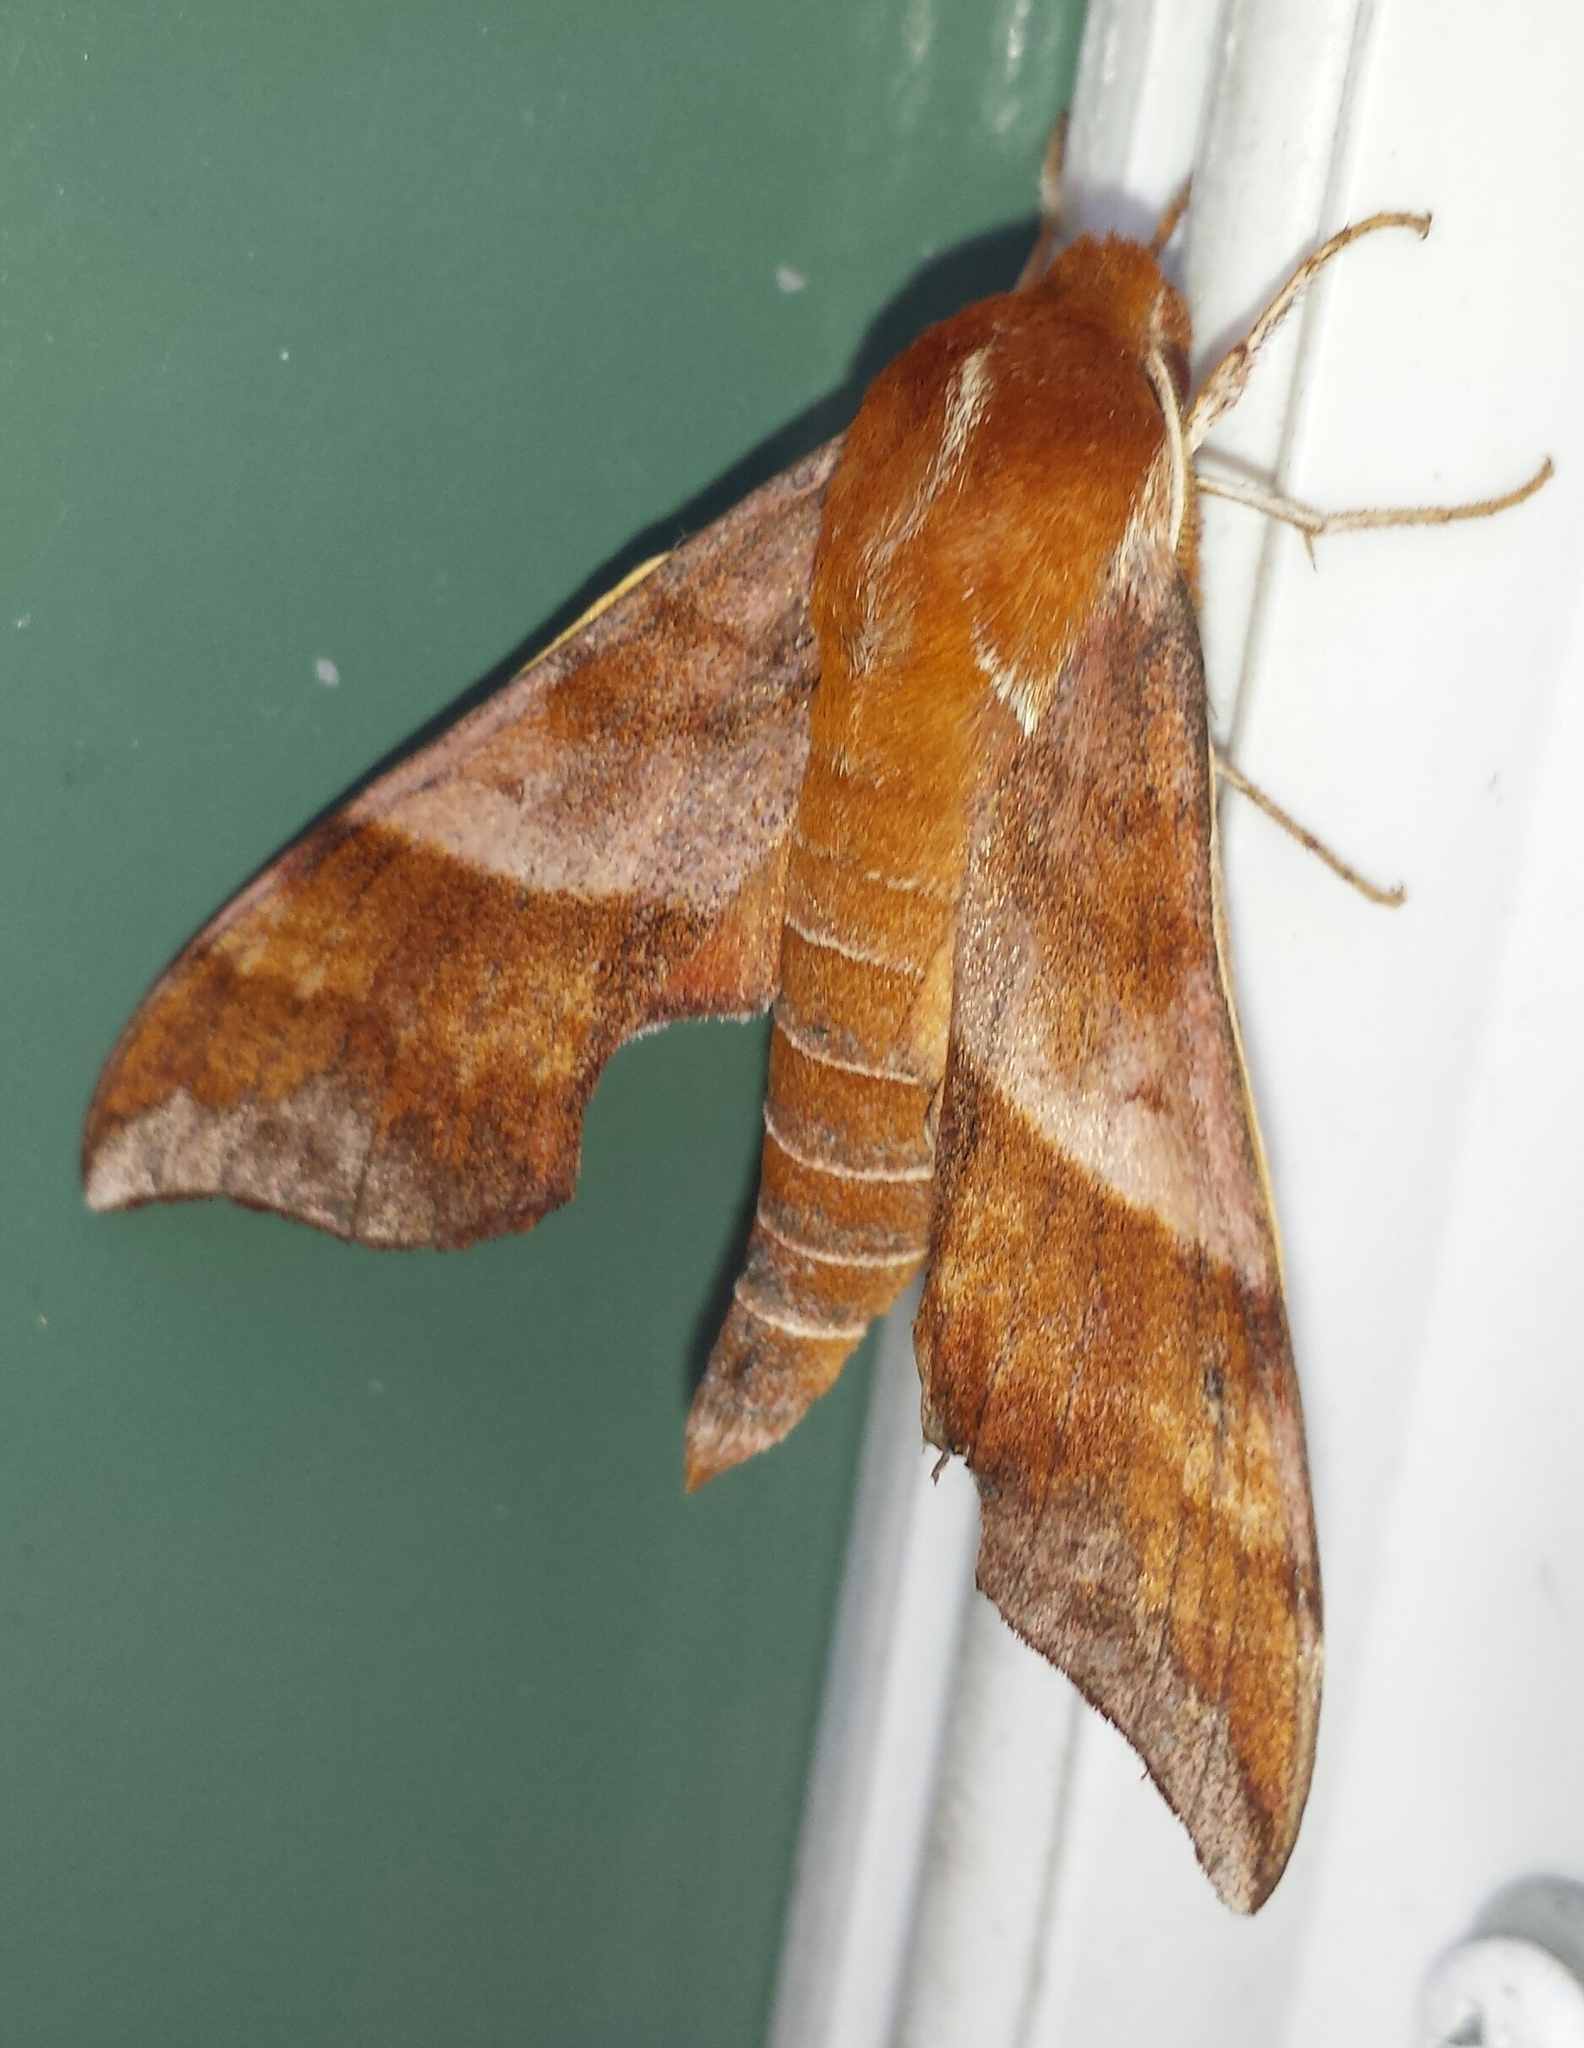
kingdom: Animalia
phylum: Arthropoda
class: Insecta
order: Lepidoptera
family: Sphingidae
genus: Darapsa
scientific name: Darapsa choerilus
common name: Azalea sphinx
